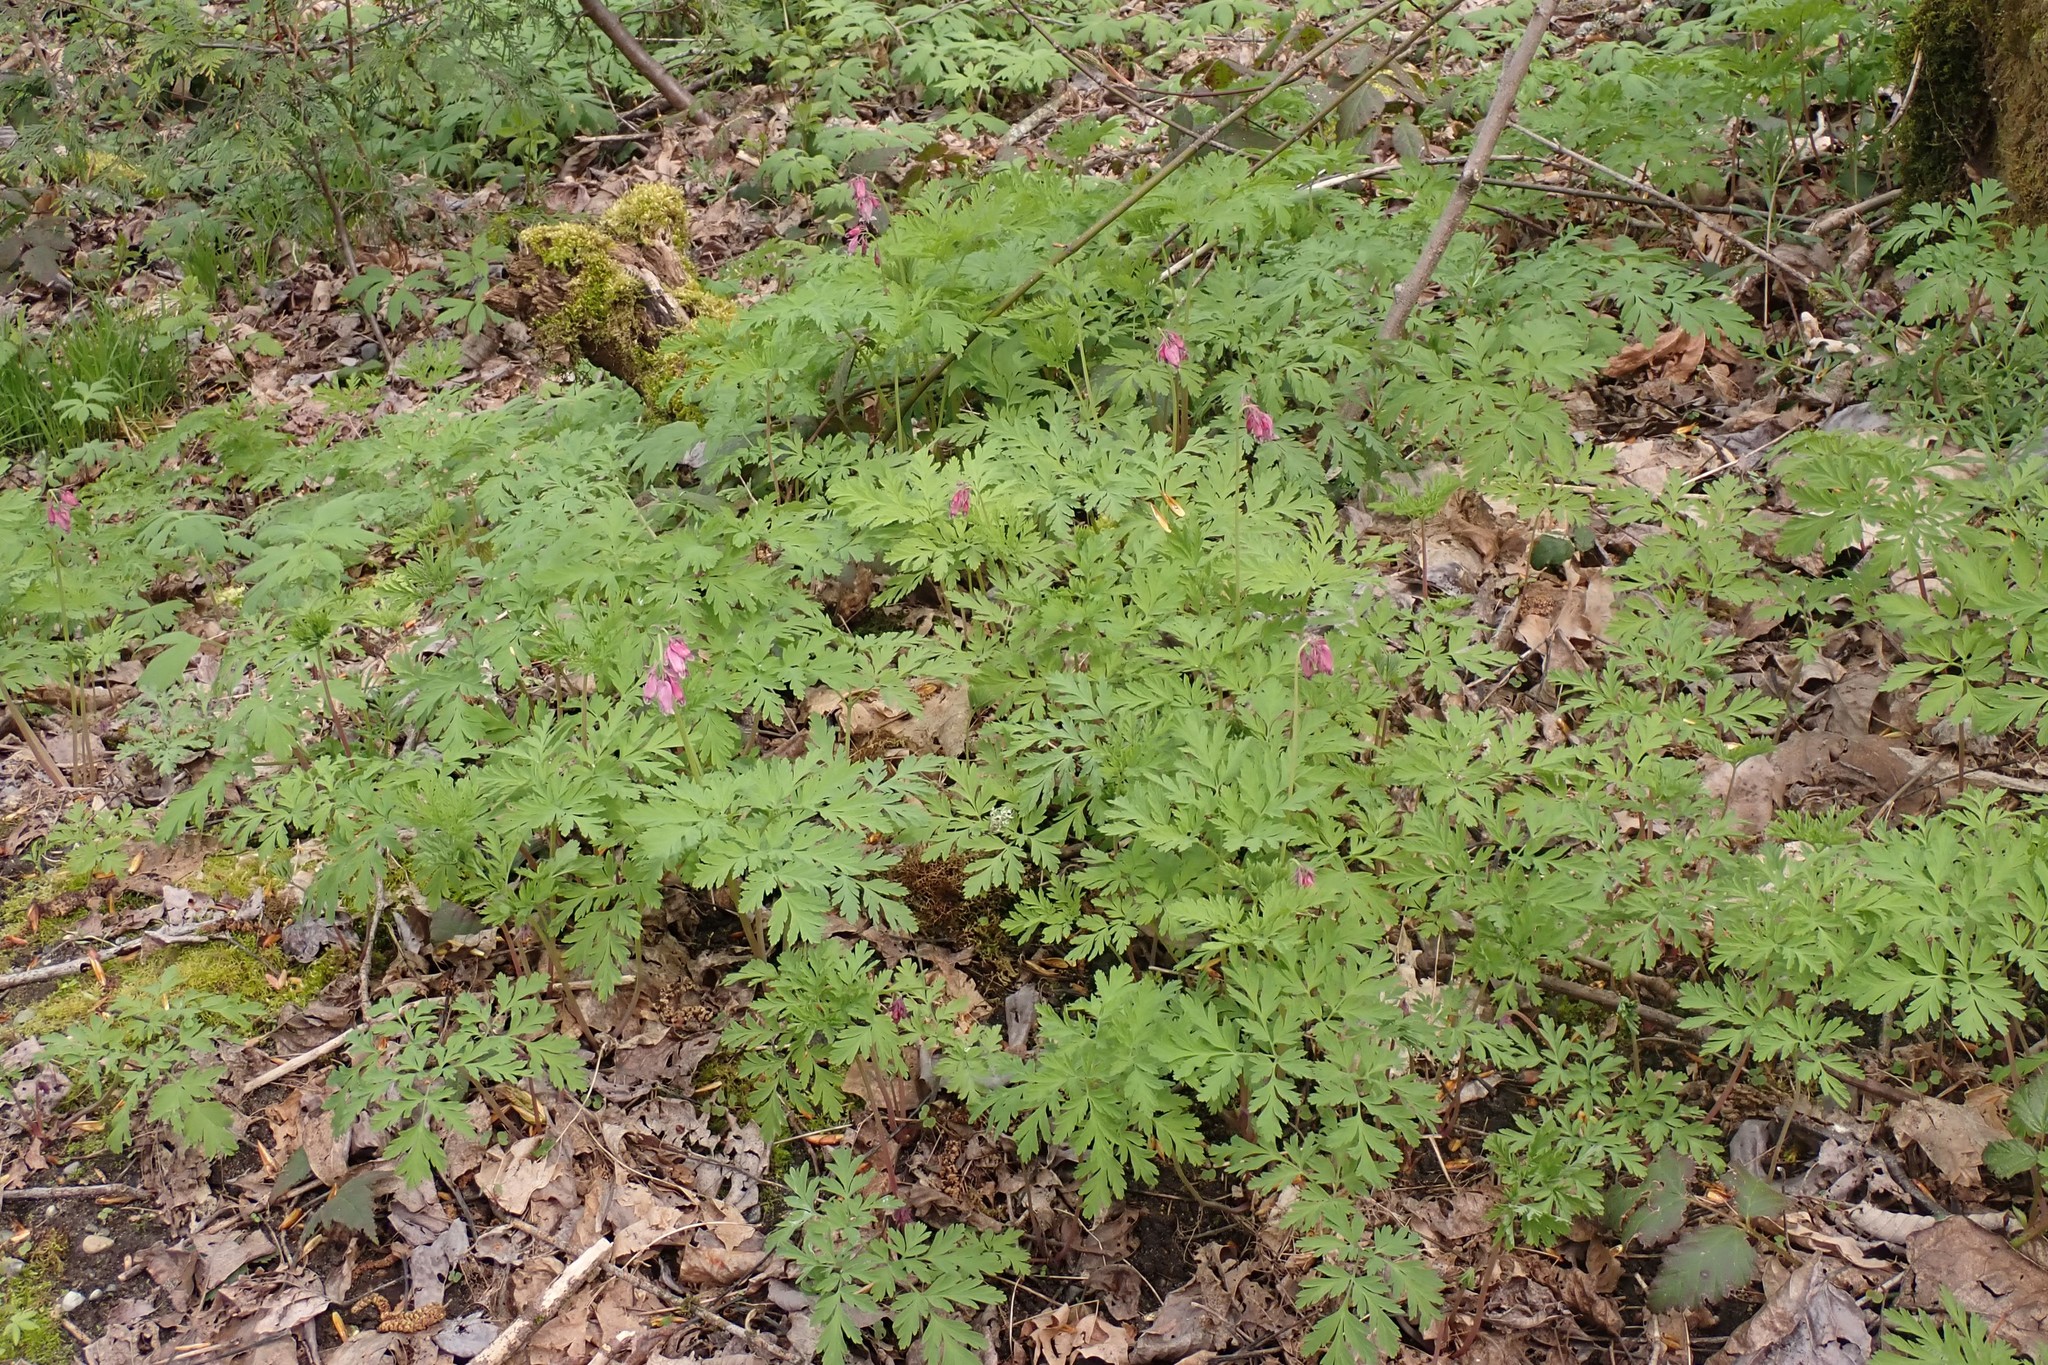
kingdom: Plantae
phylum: Tracheophyta
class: Magnoliopsida
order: Ranunculales
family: Papaveraceae
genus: Dicentra
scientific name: Dicentra formosa
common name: Bleeding-heart
